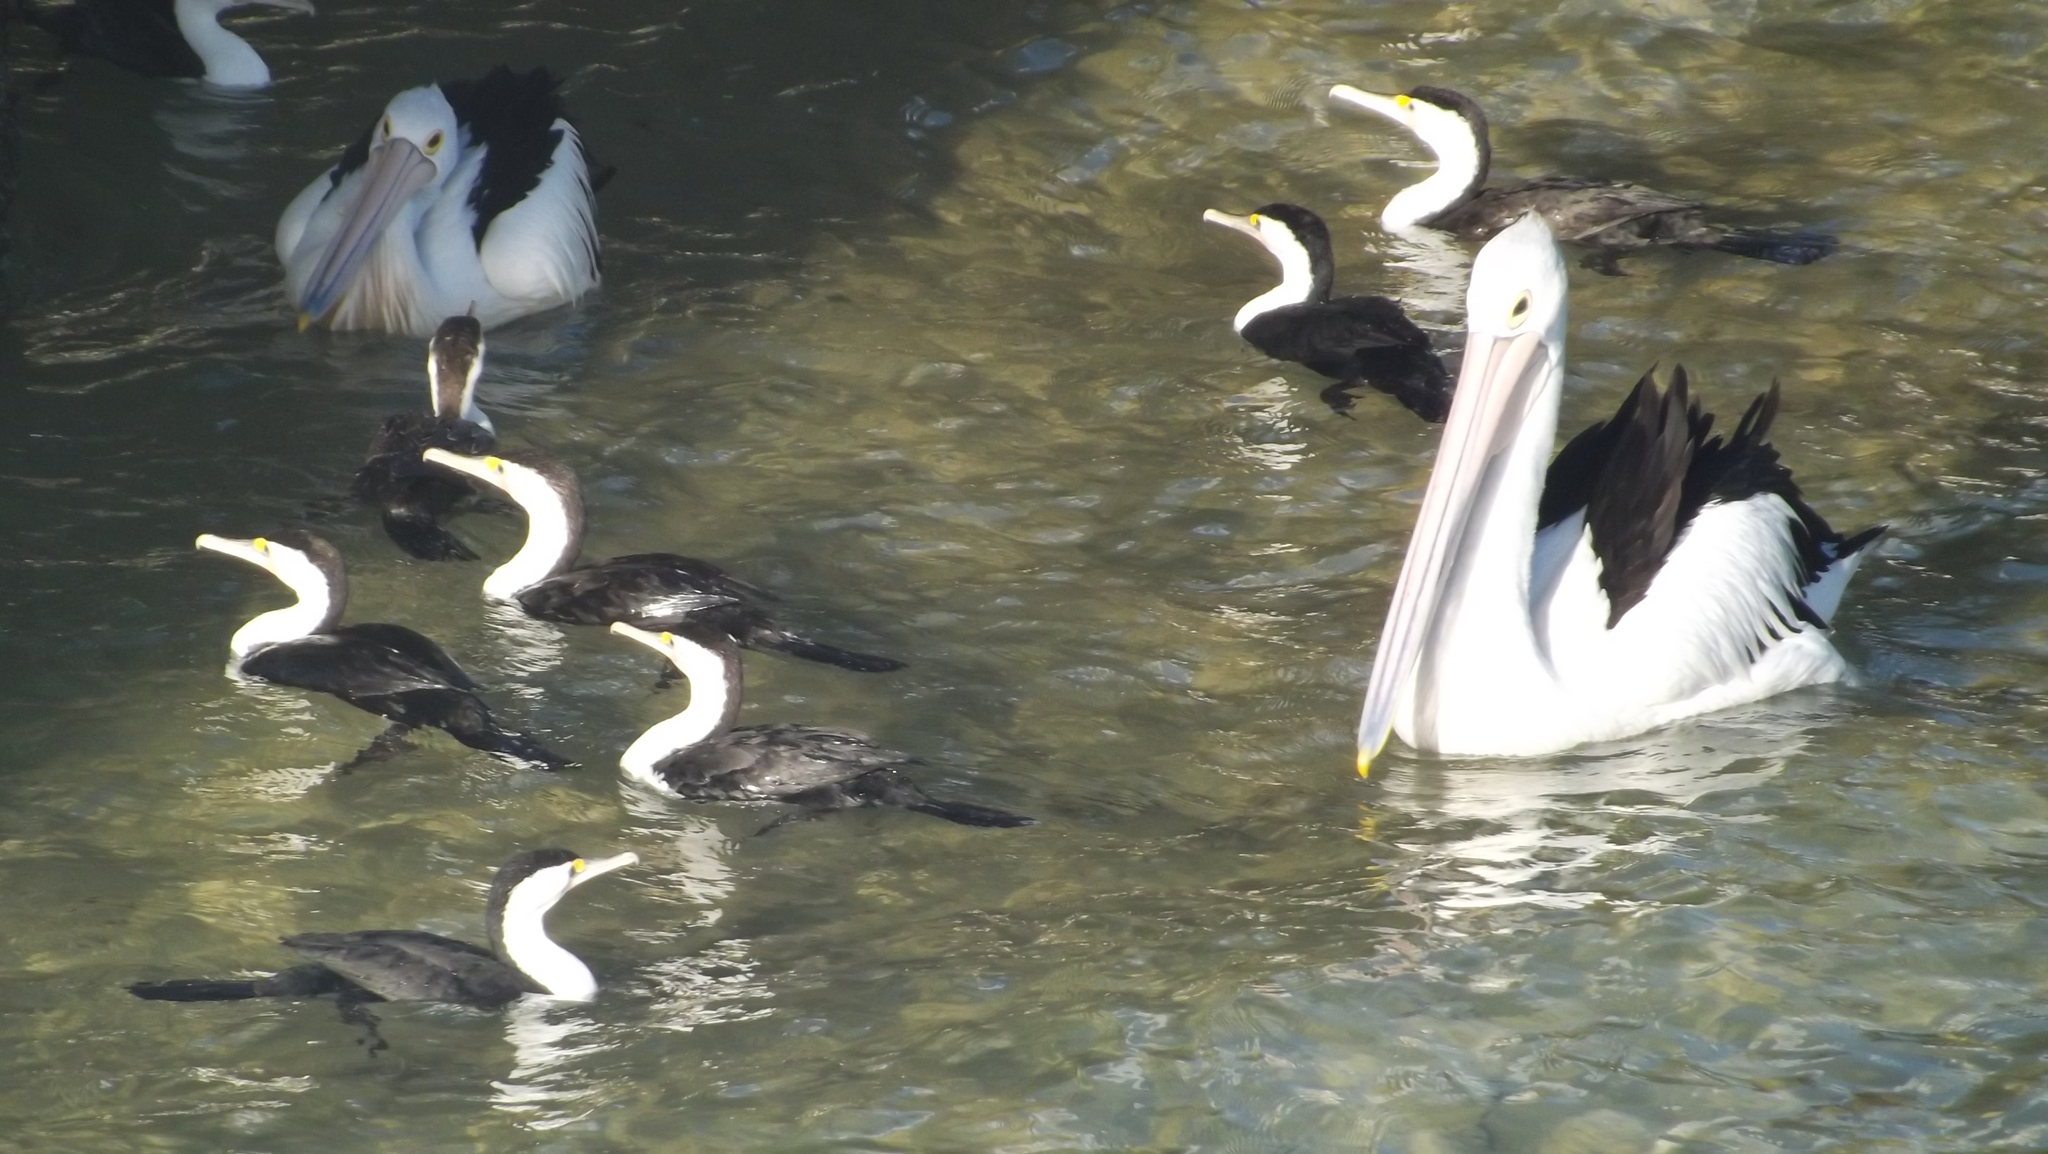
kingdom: Animalia
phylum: Chordata
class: Aves
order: Pelecaniformes
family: Pelecanidae
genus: Pelecanus
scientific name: Pelecanus conspicillatus
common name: Australian pelican
